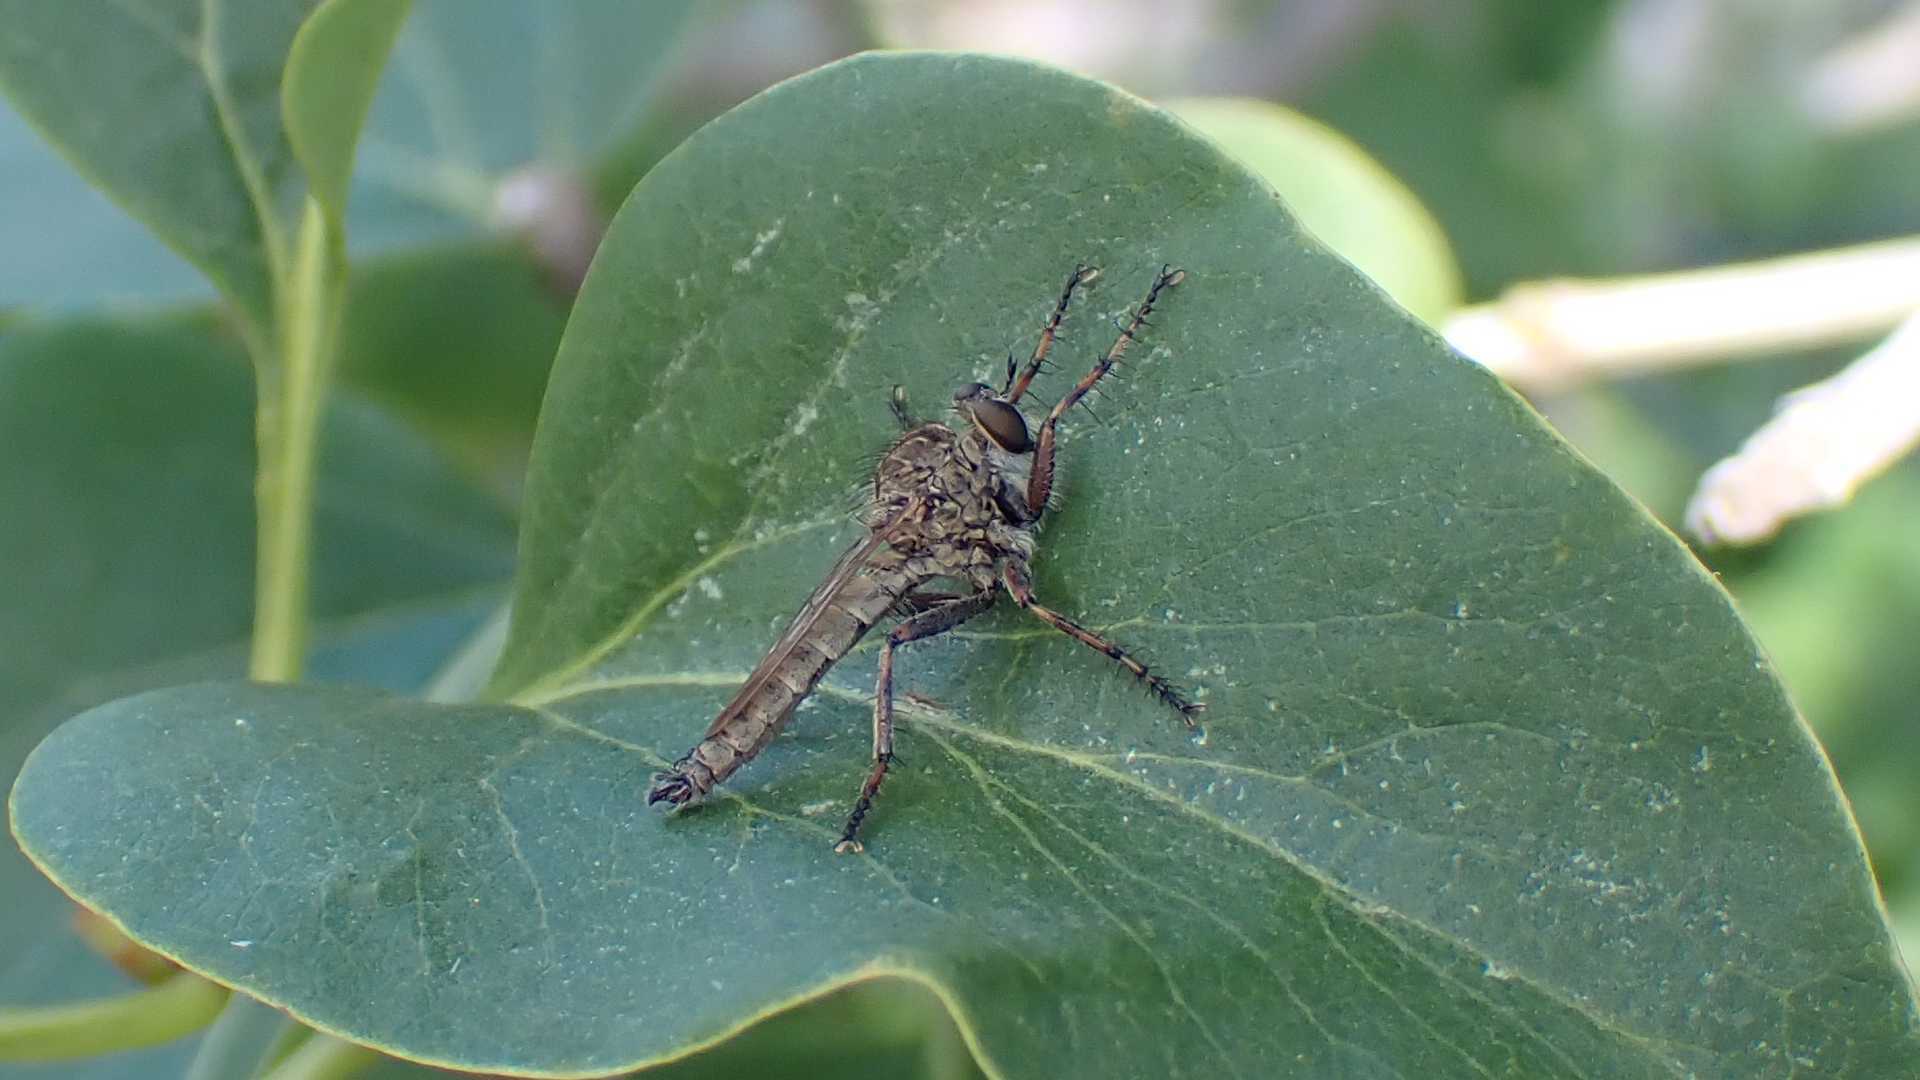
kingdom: Animalia
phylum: Arthropoda
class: Insecta
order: Diptera
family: Asilidae
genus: Epitriptus
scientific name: Epitriptus cingulatus
